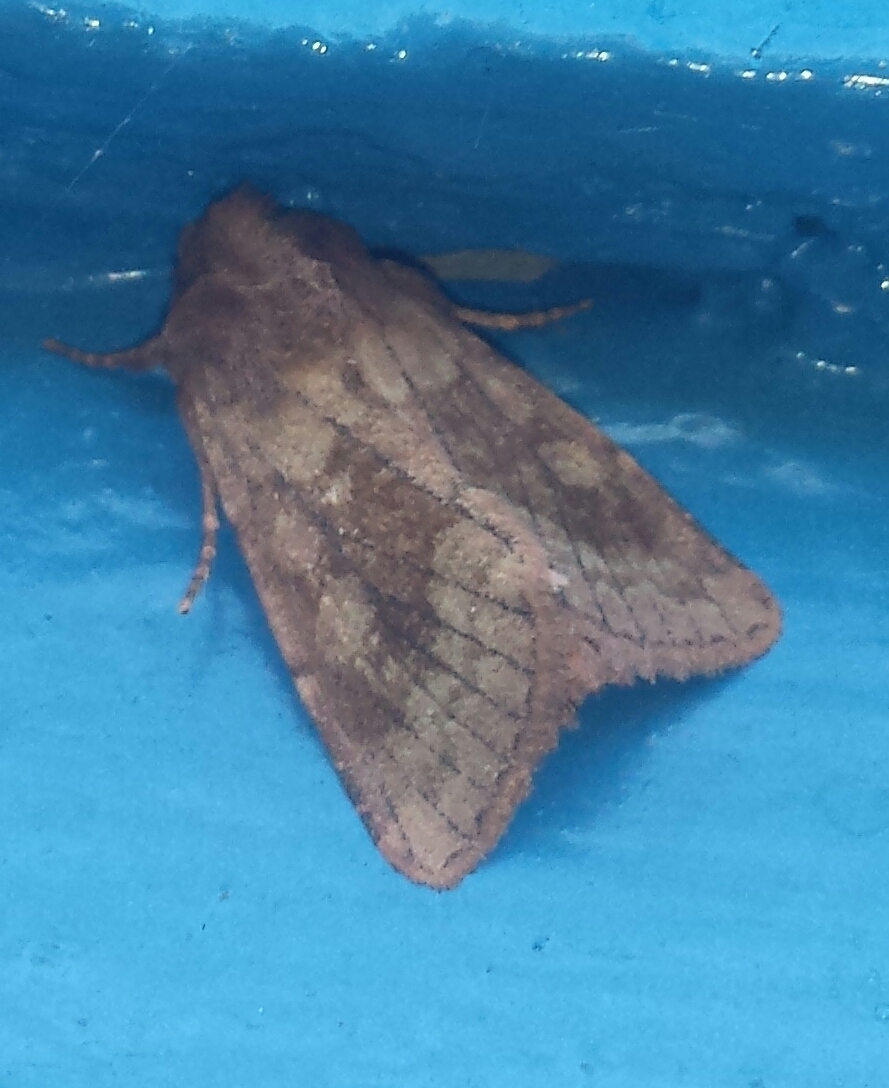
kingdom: Animalia
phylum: Arthropoda
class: Insecta
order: Lepidoptera
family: Noctuidae
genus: Nephelodes
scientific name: Nephelodes minians
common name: Bronzed cutworm
